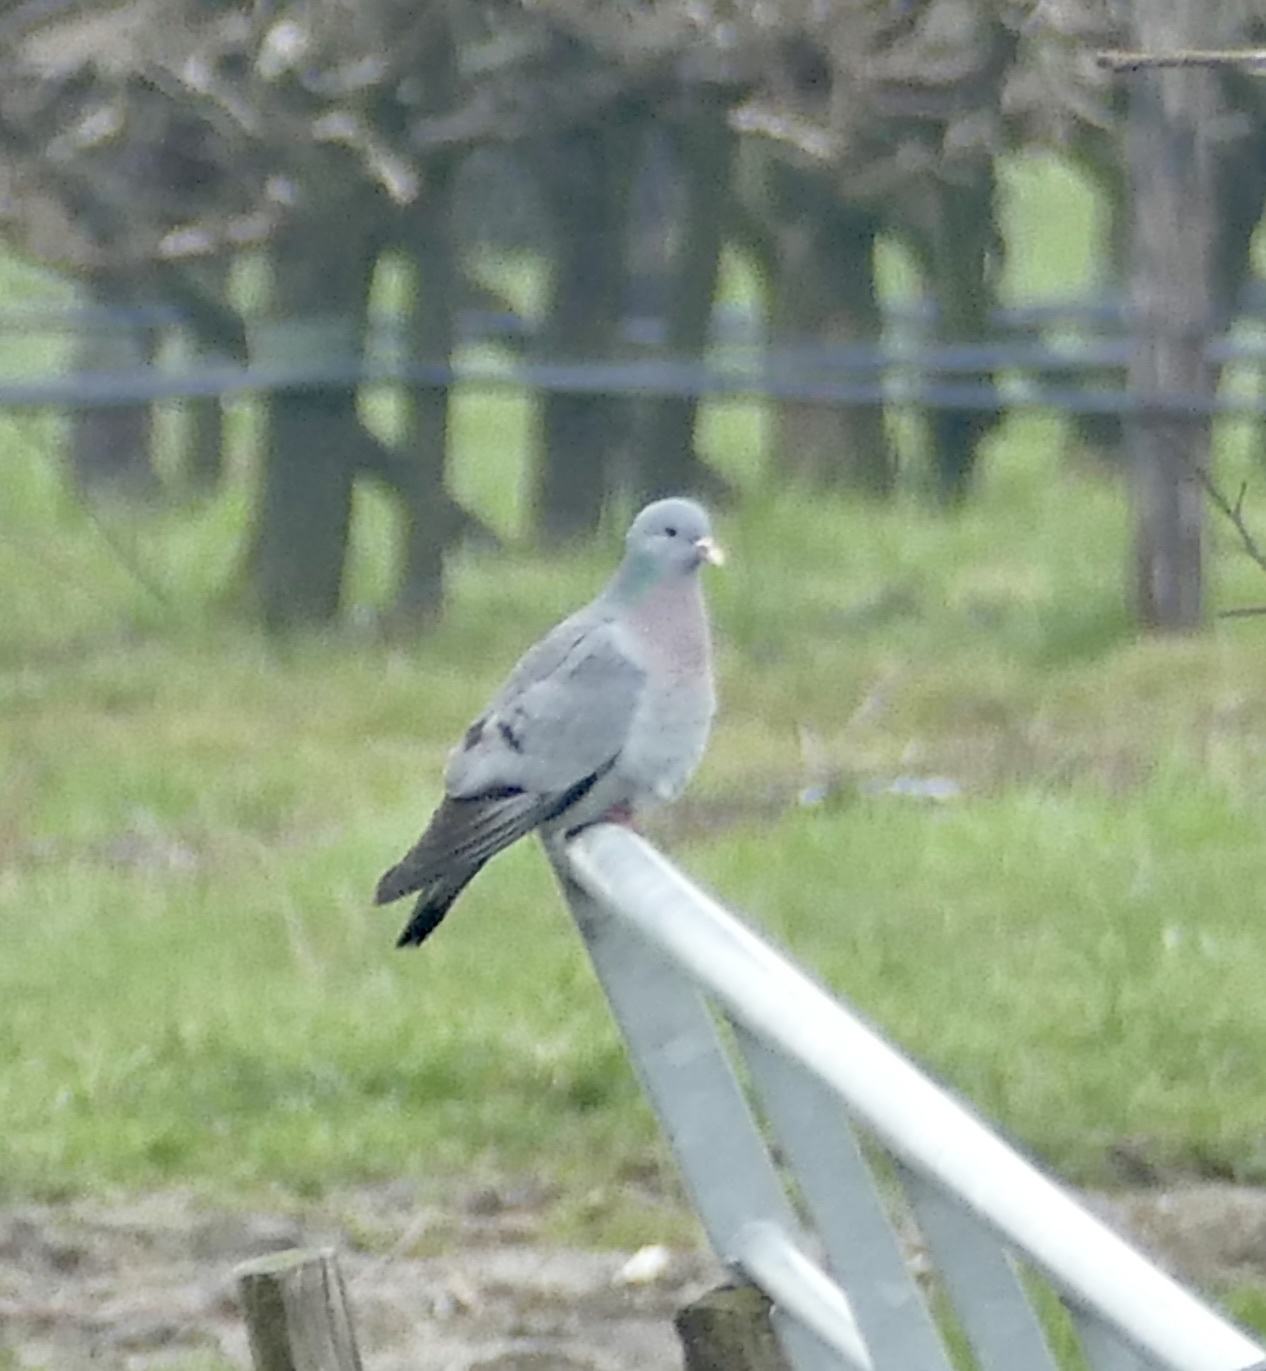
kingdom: Animalia
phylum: Chordata
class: Aves
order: Columbiformes
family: Columbidae
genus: Columba
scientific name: Columba oenas
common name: Stock dove
